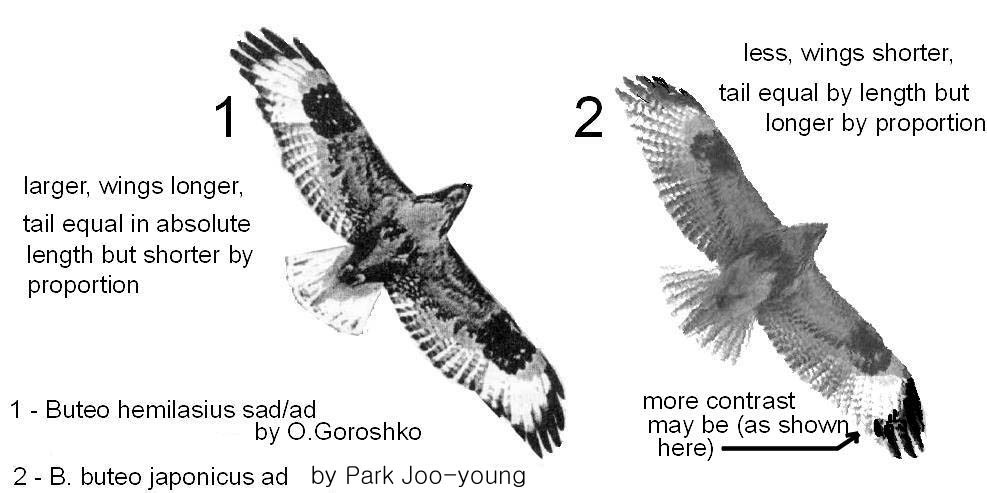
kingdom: Animalia
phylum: Chordata
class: Aves
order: Accipitriformes
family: Accipitridae
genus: Buteo
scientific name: Buteo hemilasius
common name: Upland buzzard
